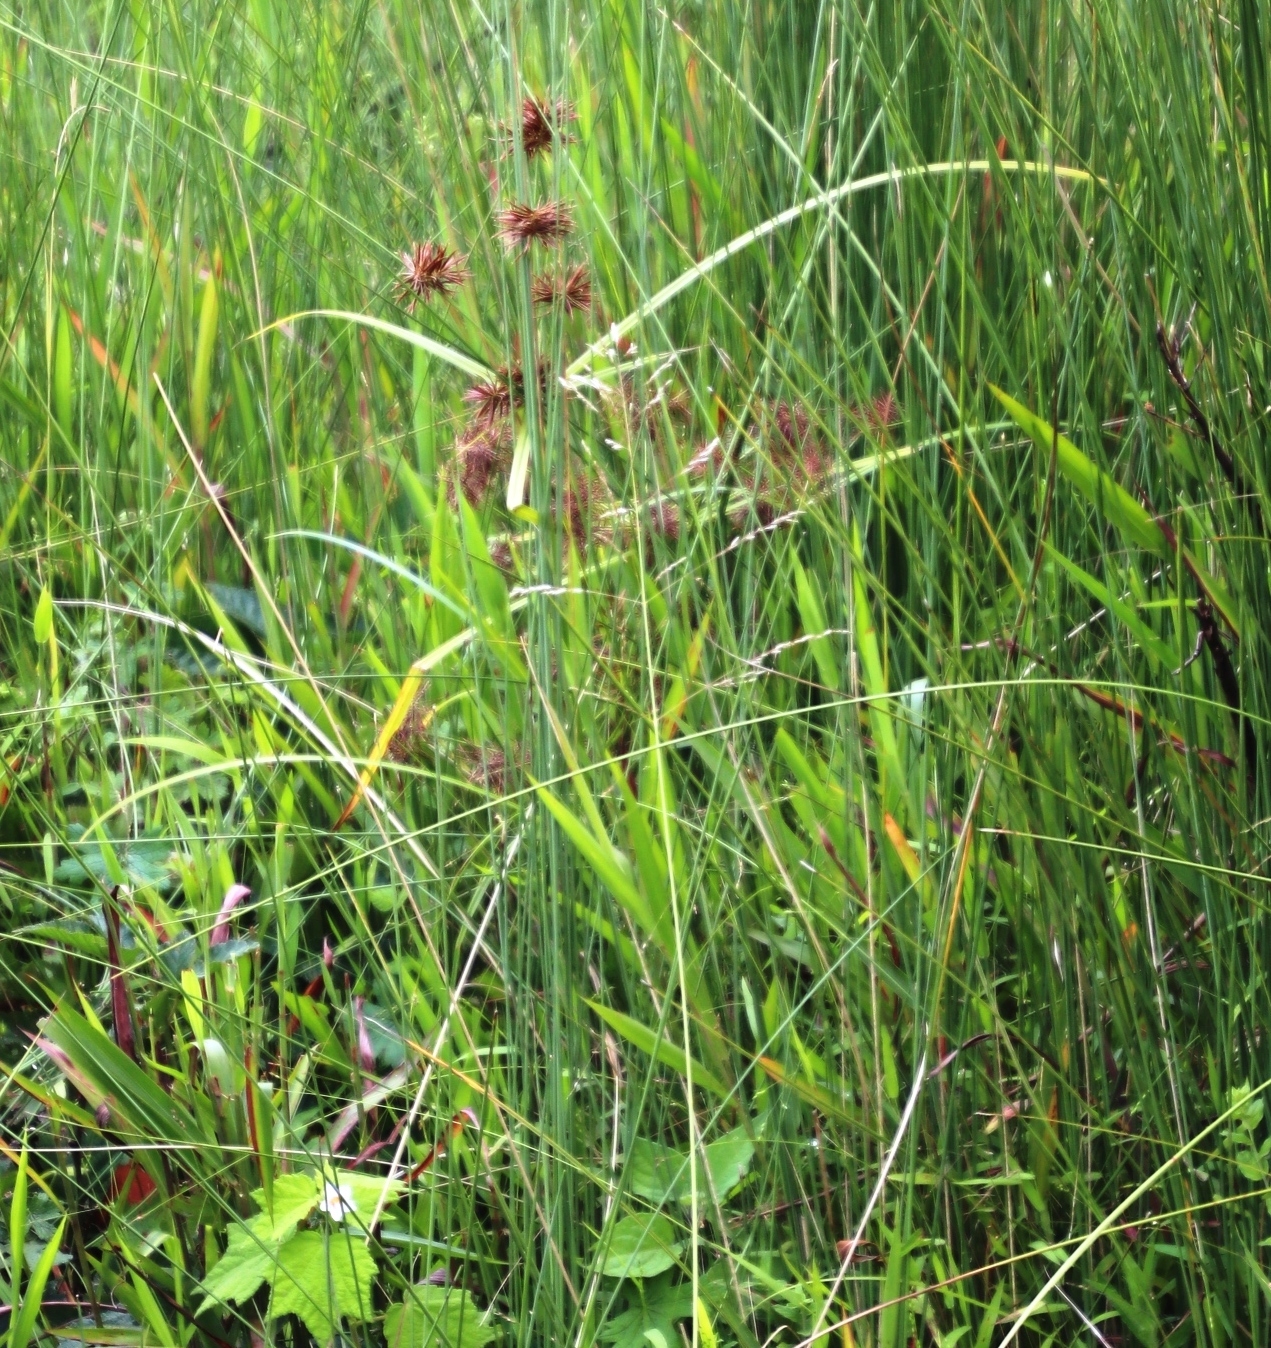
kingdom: Plantae
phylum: Tracheophyta
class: Liliopsida
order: Poales
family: Cyperaceae
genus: Cyperus
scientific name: Cyperus congestus
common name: Dense flat sedge
